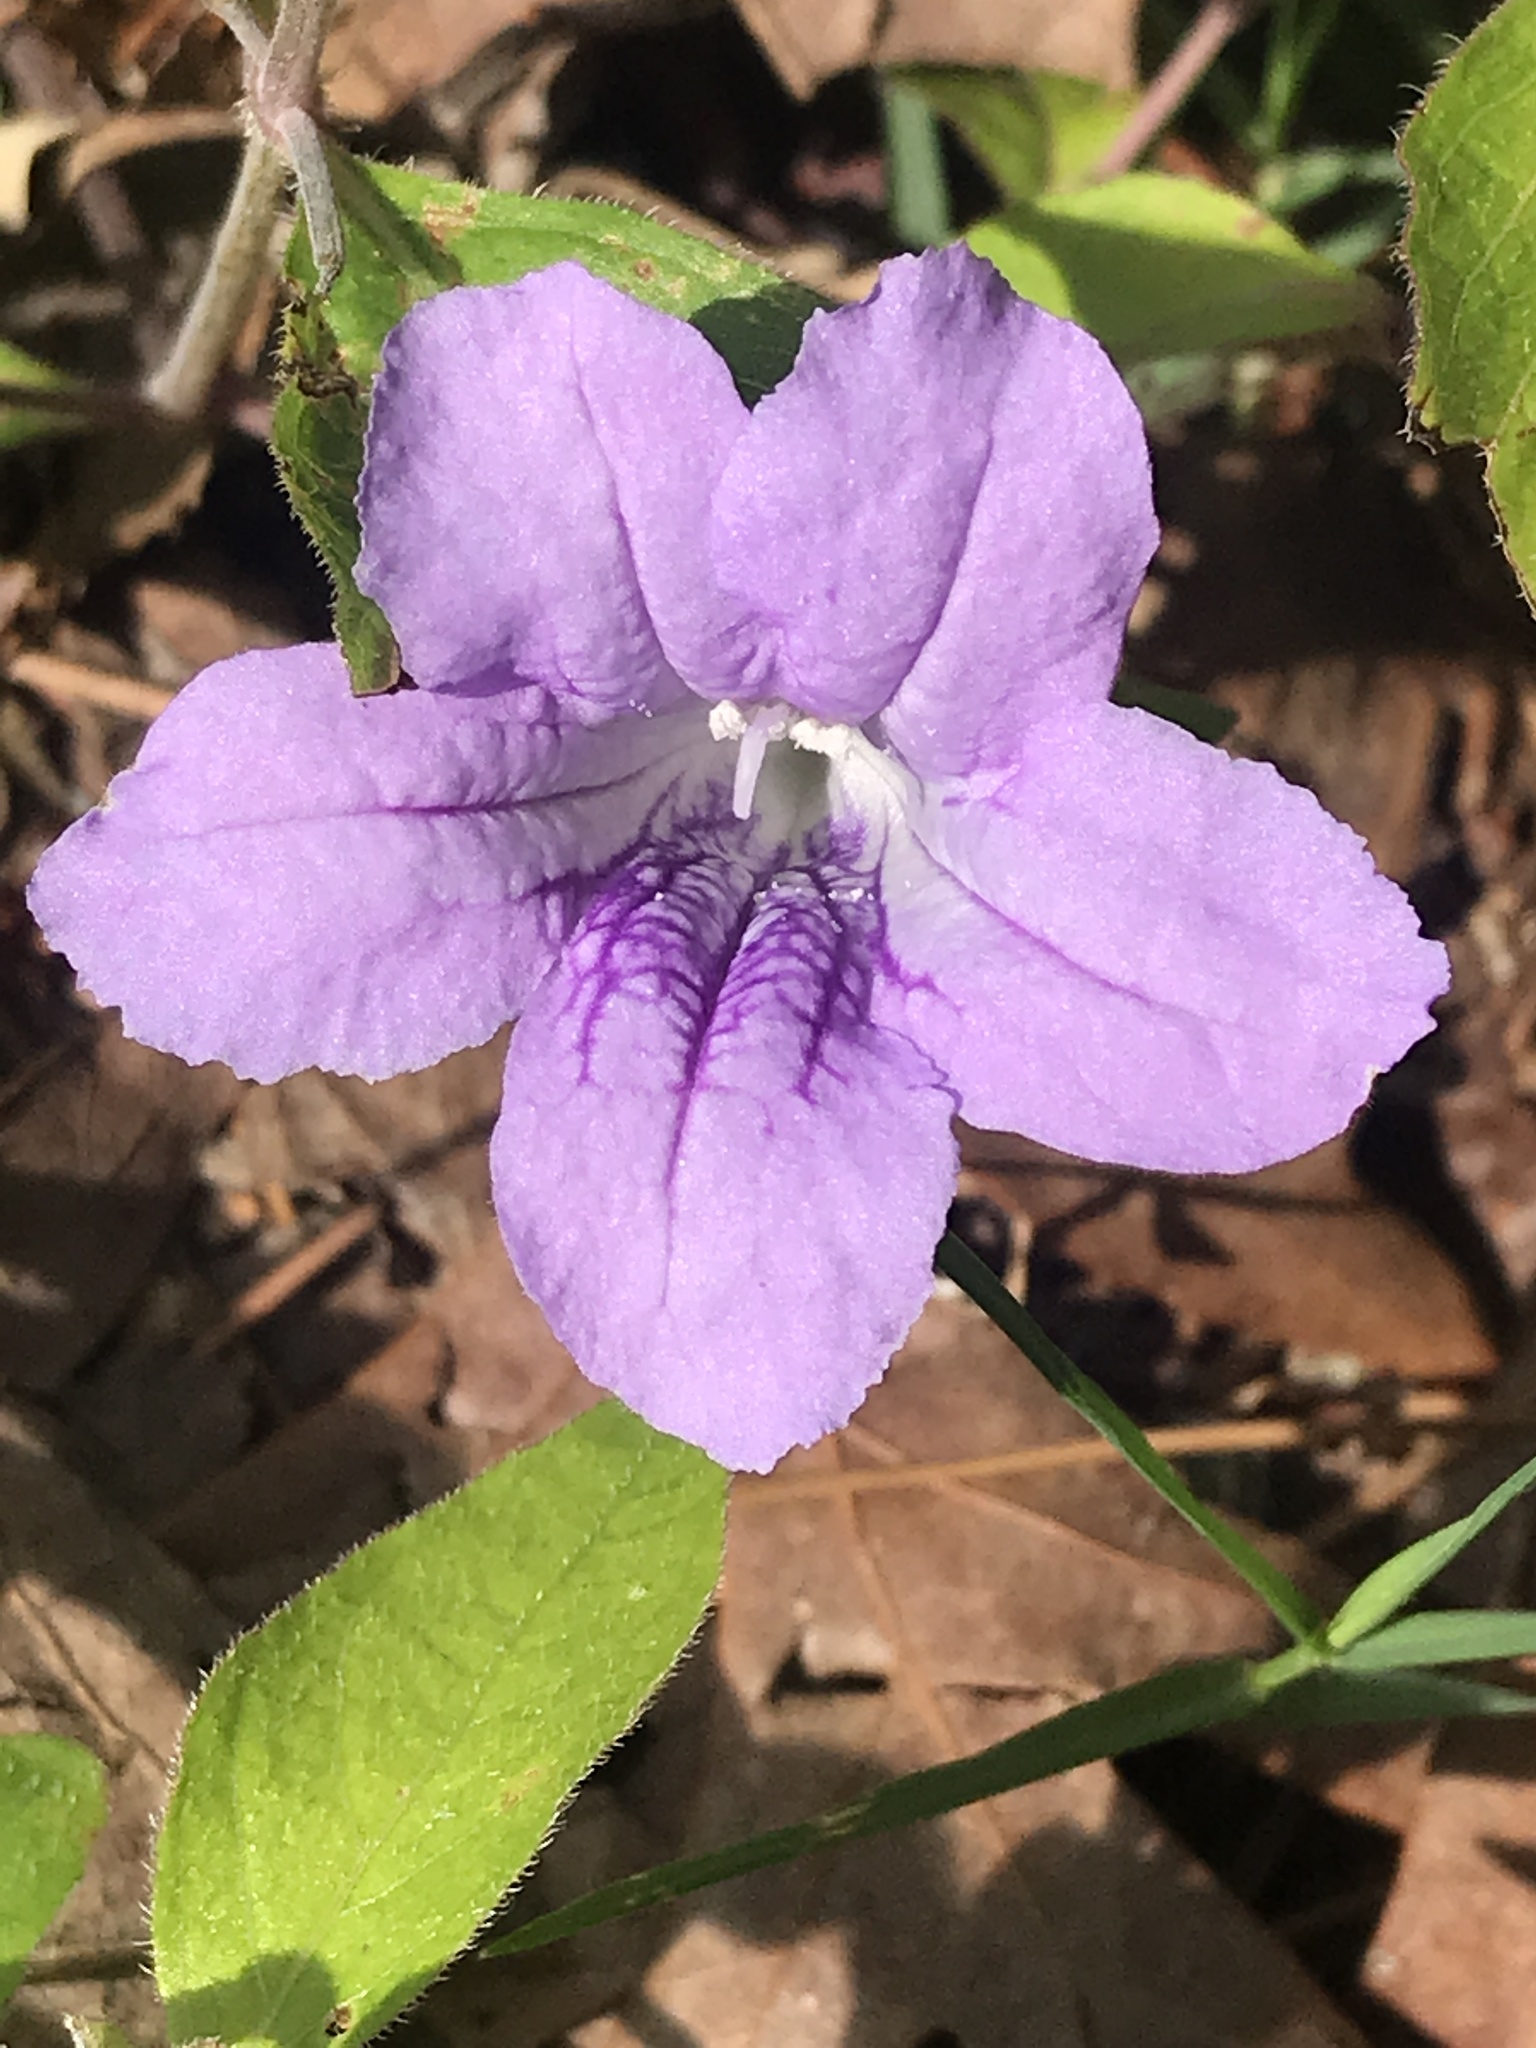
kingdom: Plantae
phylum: Tracheophyta
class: Magnoliopsida
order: Lamiales
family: Acanthaceae
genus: Ruellia
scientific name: Ruellia pedunculata
